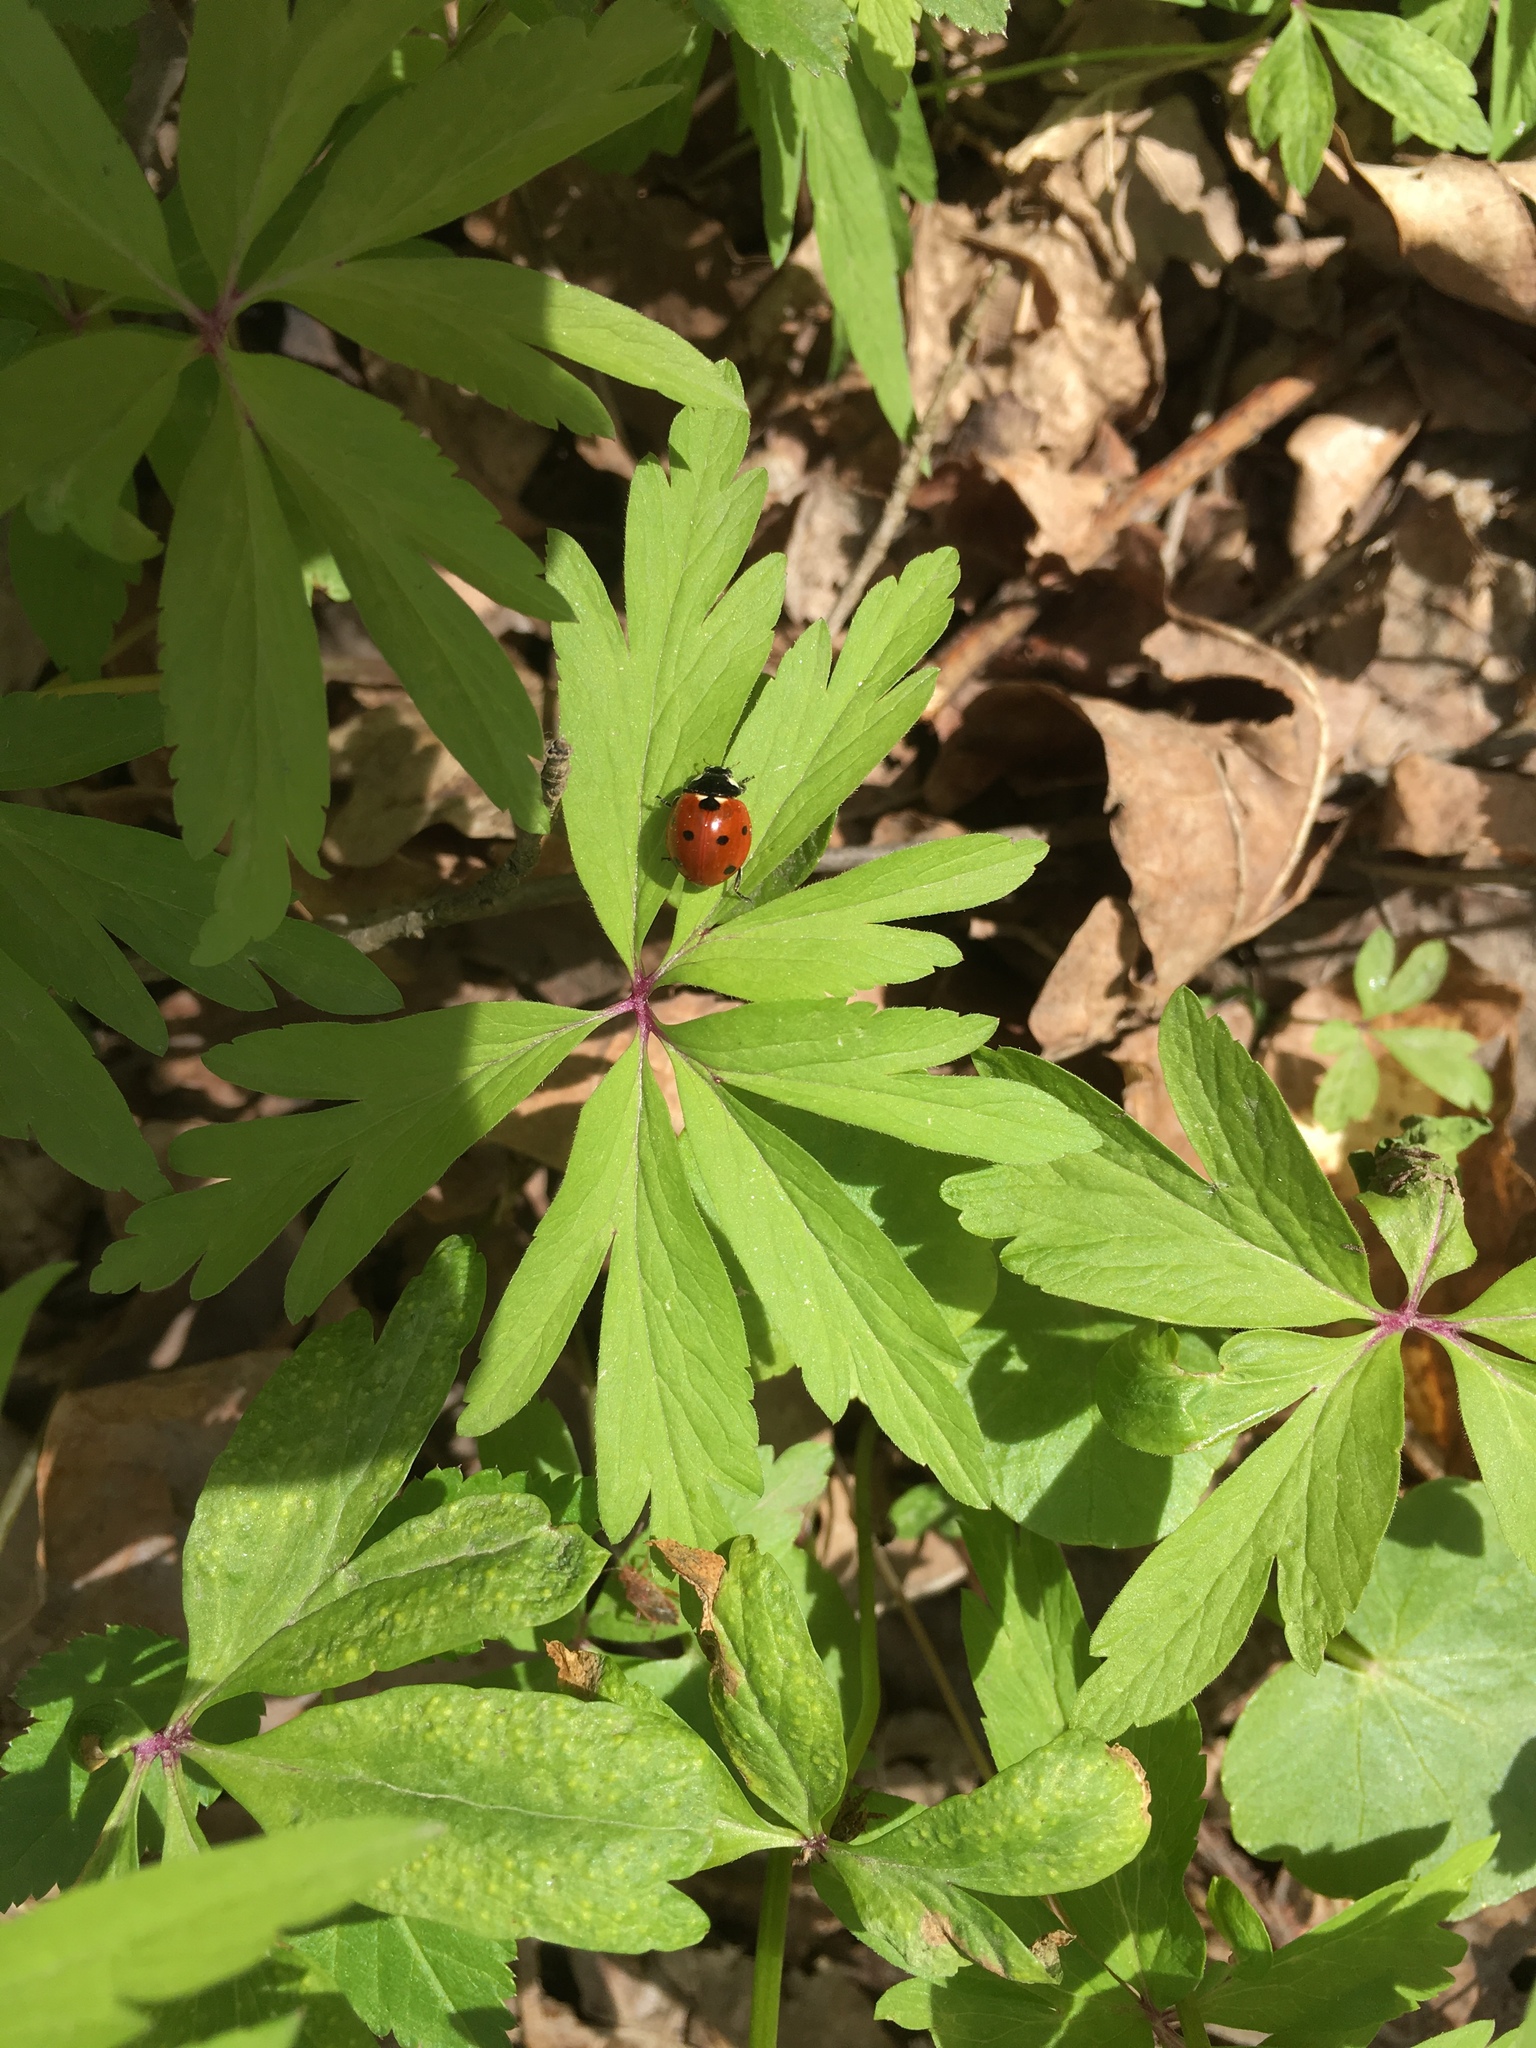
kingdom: Animalia
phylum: Arthropoda
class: Insecta
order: Coleoptera
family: Coccinellidae
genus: Coccinella
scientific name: Coccinella septempunctata
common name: Sevenspotted lady beetle
